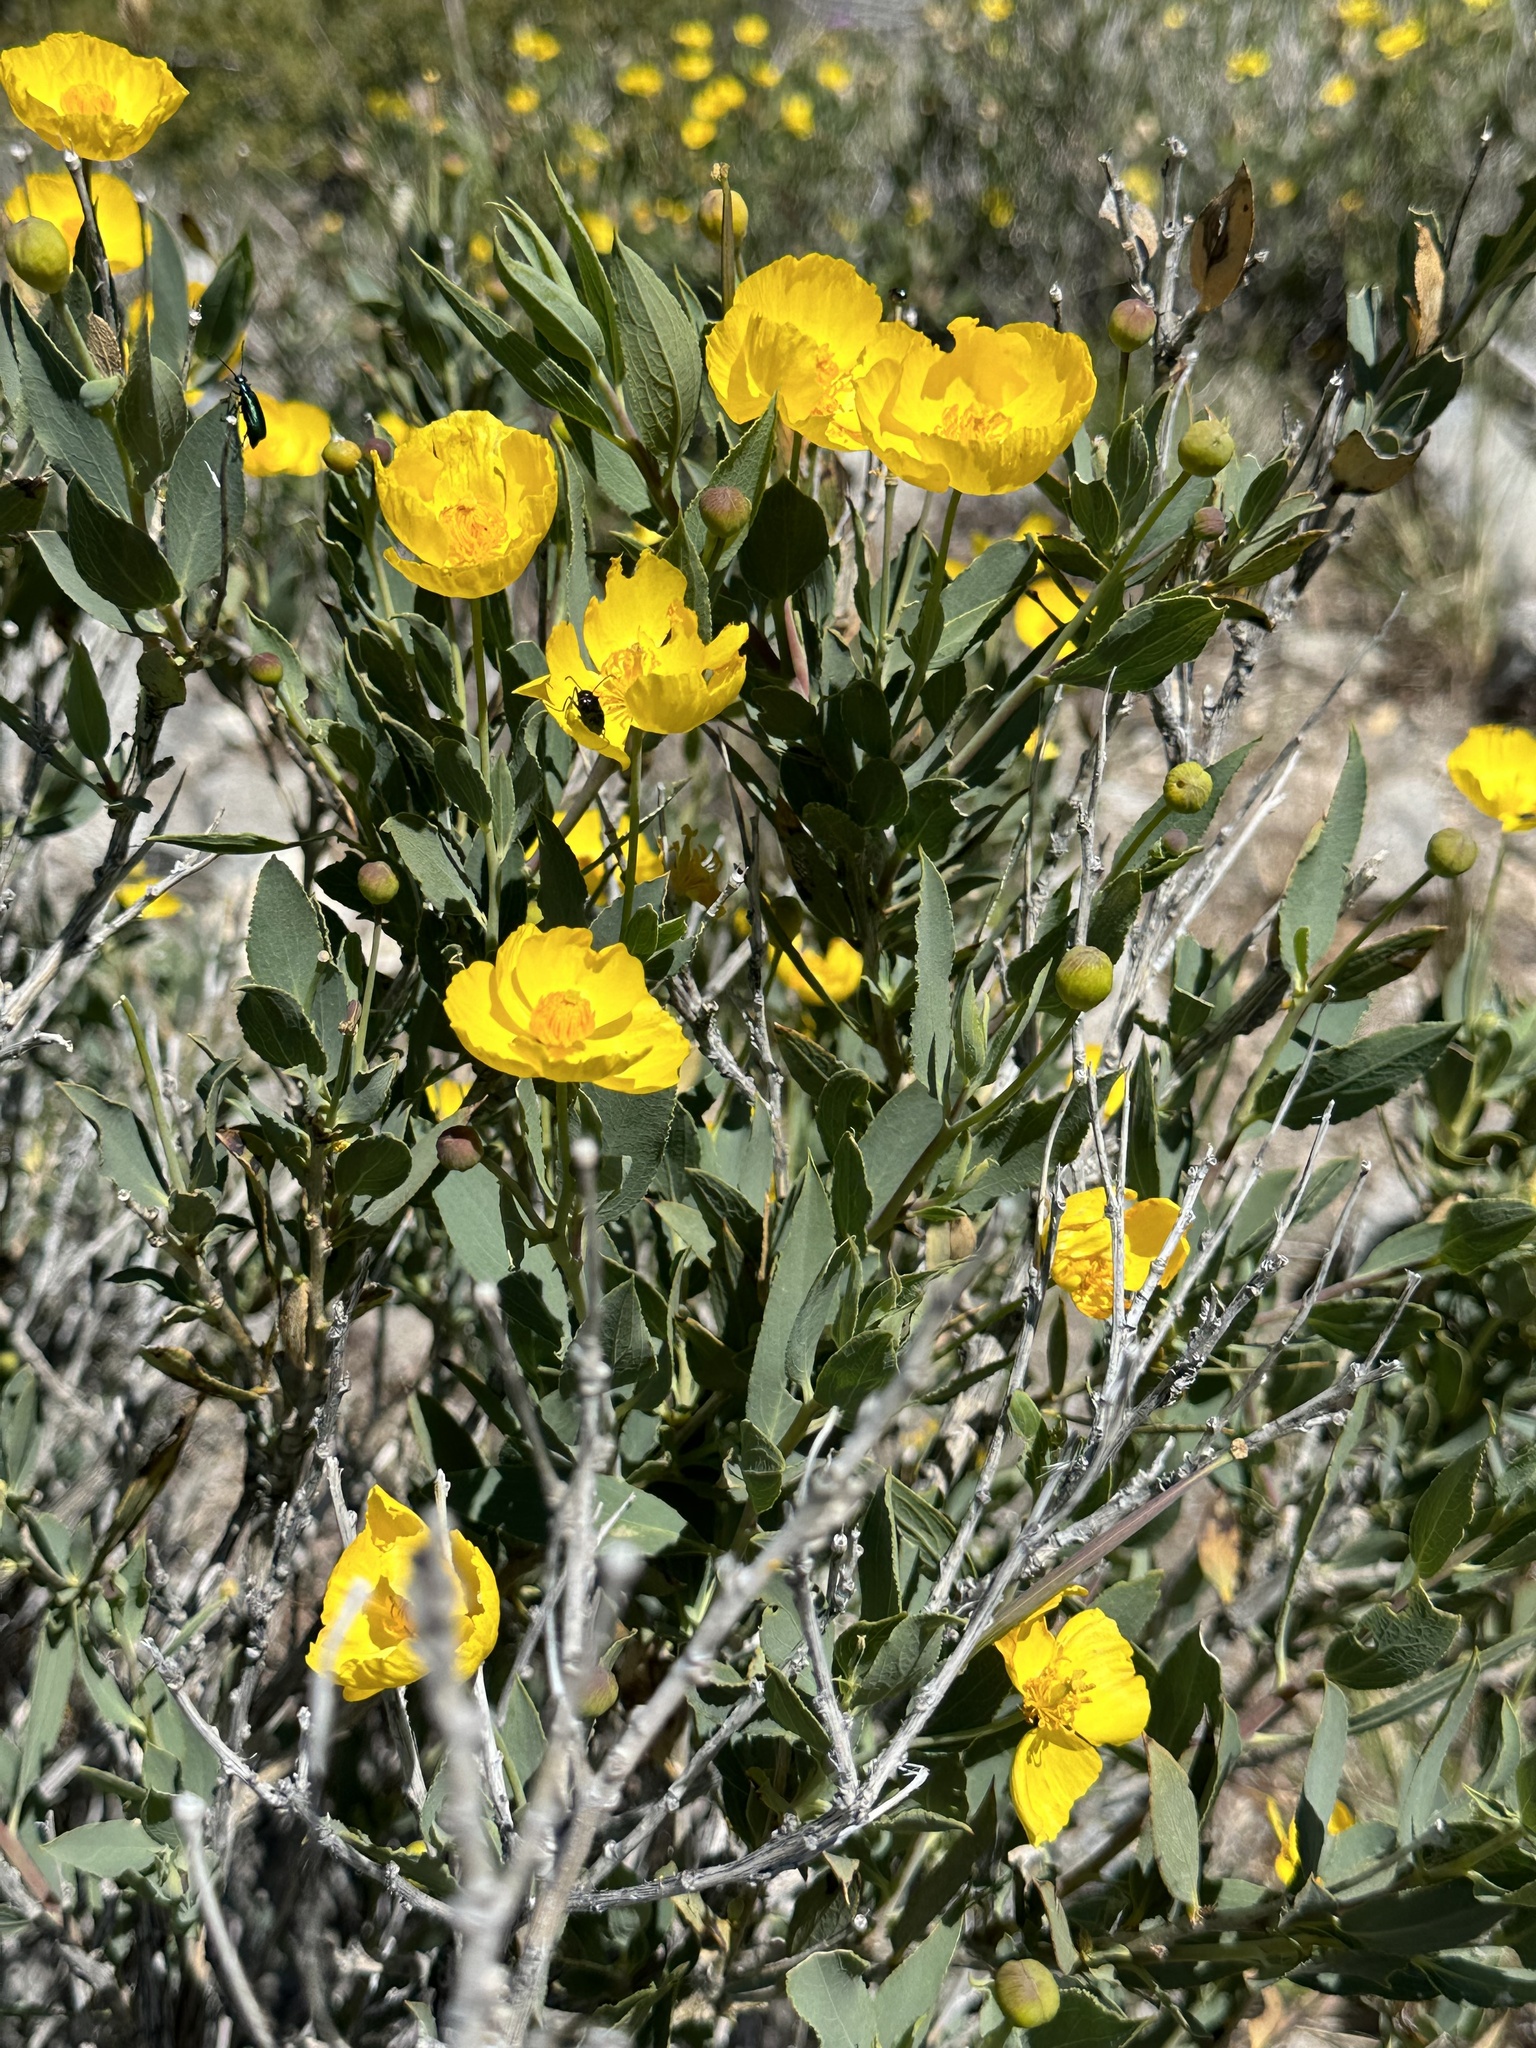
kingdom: Plantae
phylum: Tracheophyta
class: Magnoliopsida
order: Ranunculales
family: Papaveraceae
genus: Dendromecon
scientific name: Dendromecon rigida
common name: Tree poppy
